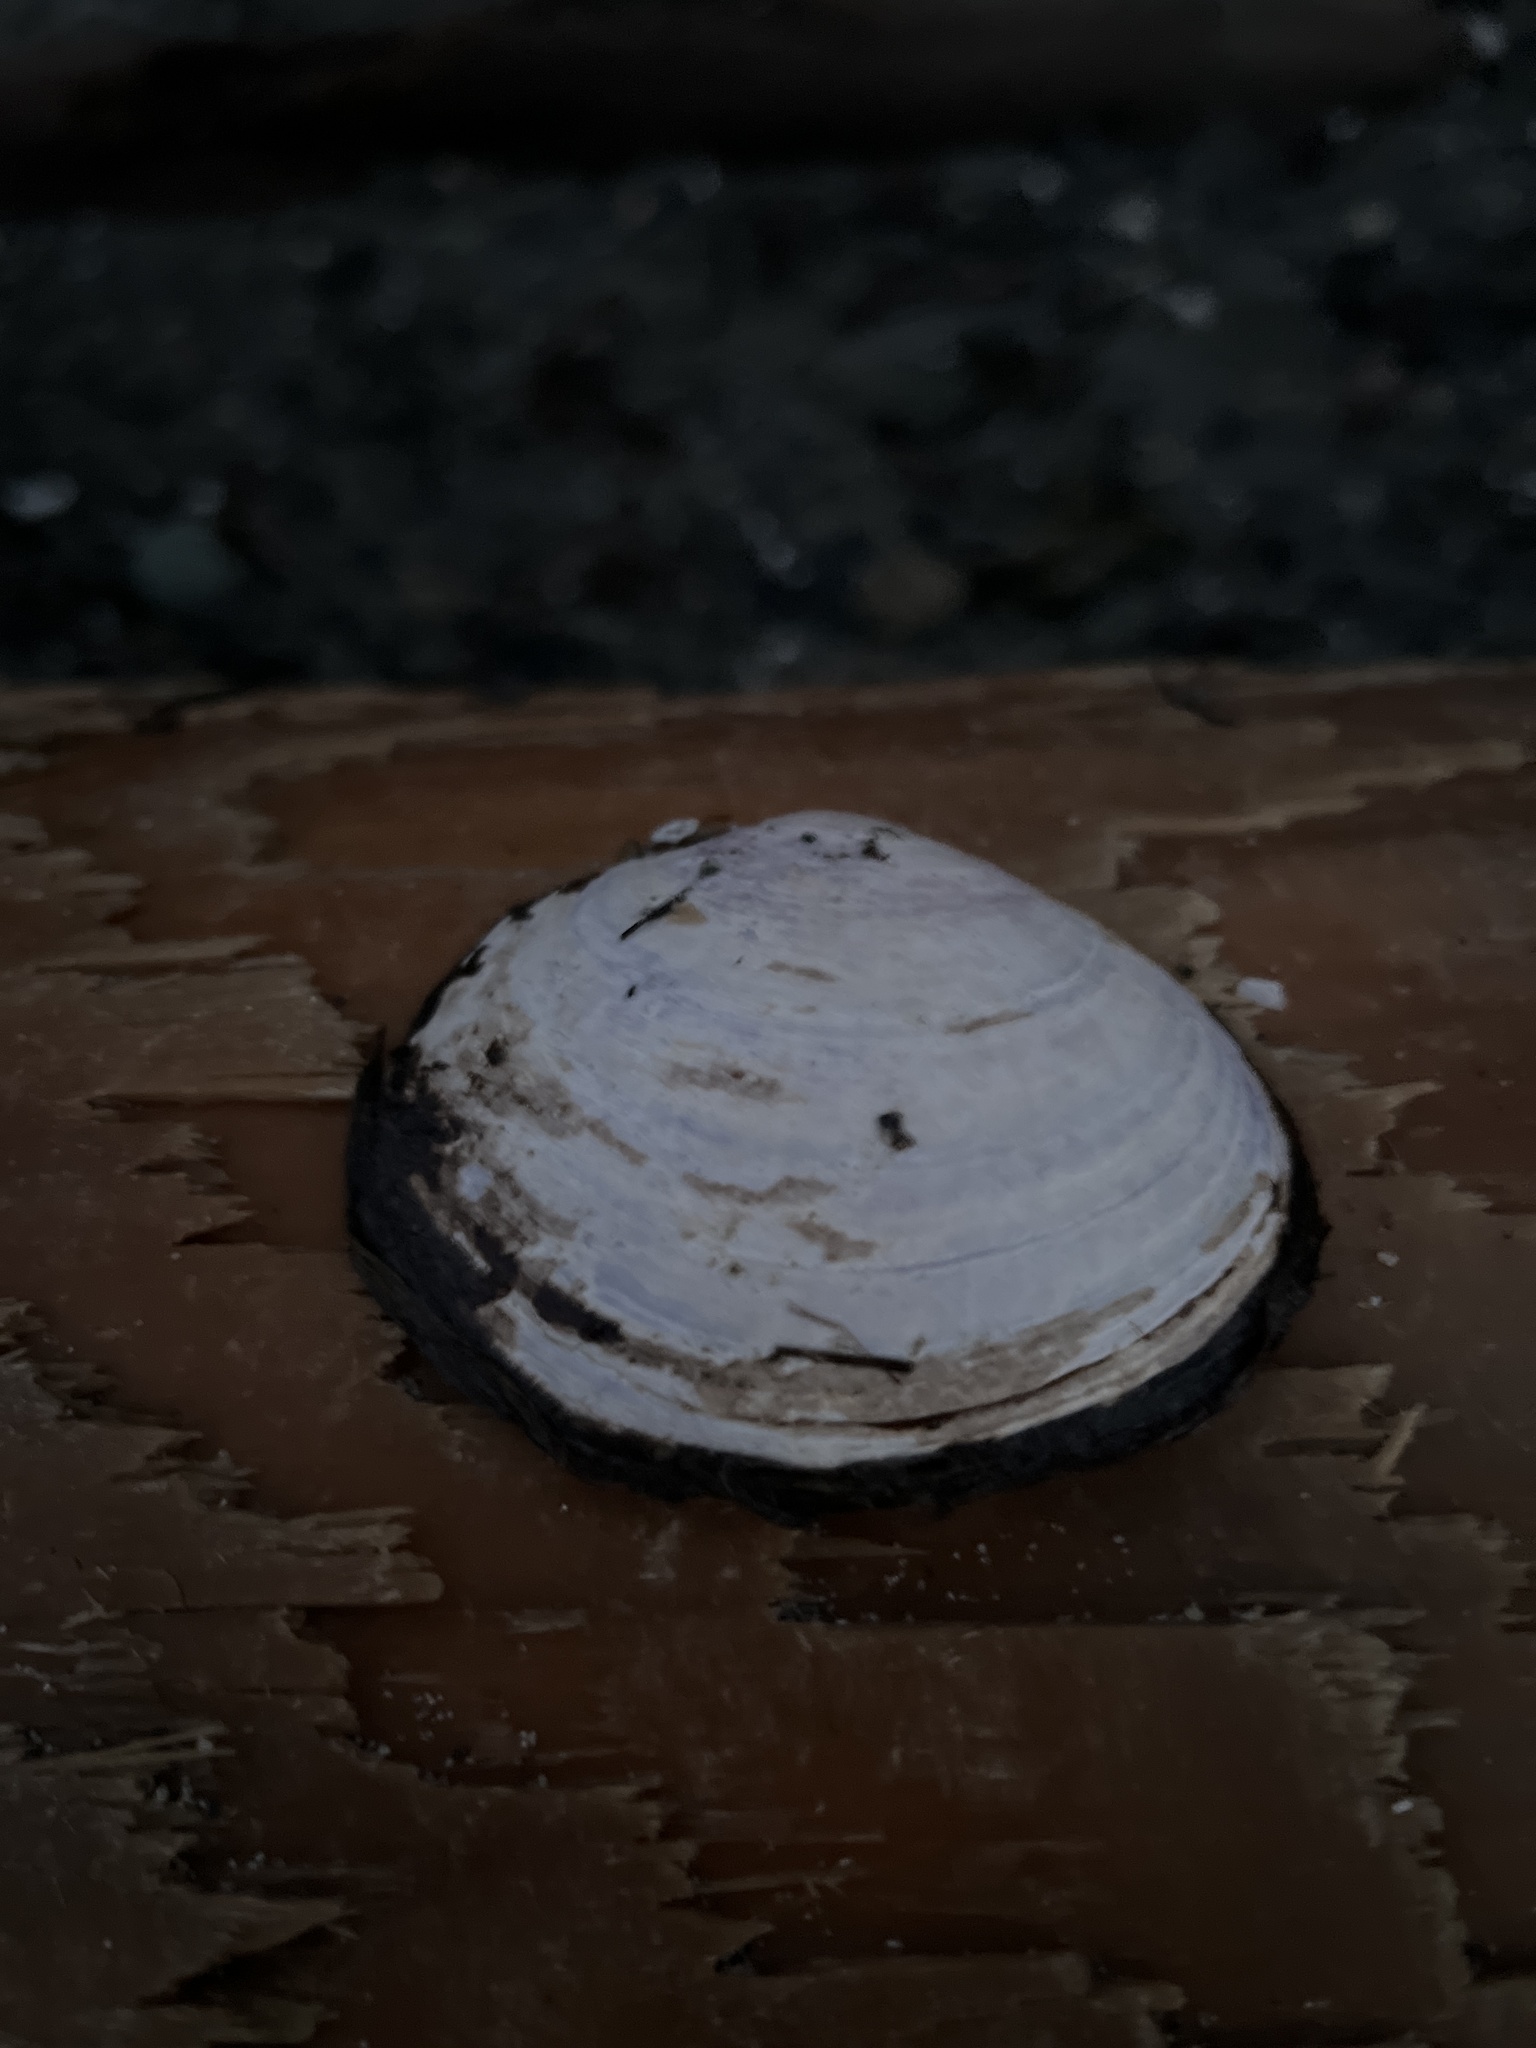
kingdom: Animalia
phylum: Mollusca
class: Bivalvia
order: Cardiida
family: Psammobiidae
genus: Nuttallia
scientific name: Nuttallia obscurata
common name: Purple mahogany-clam
